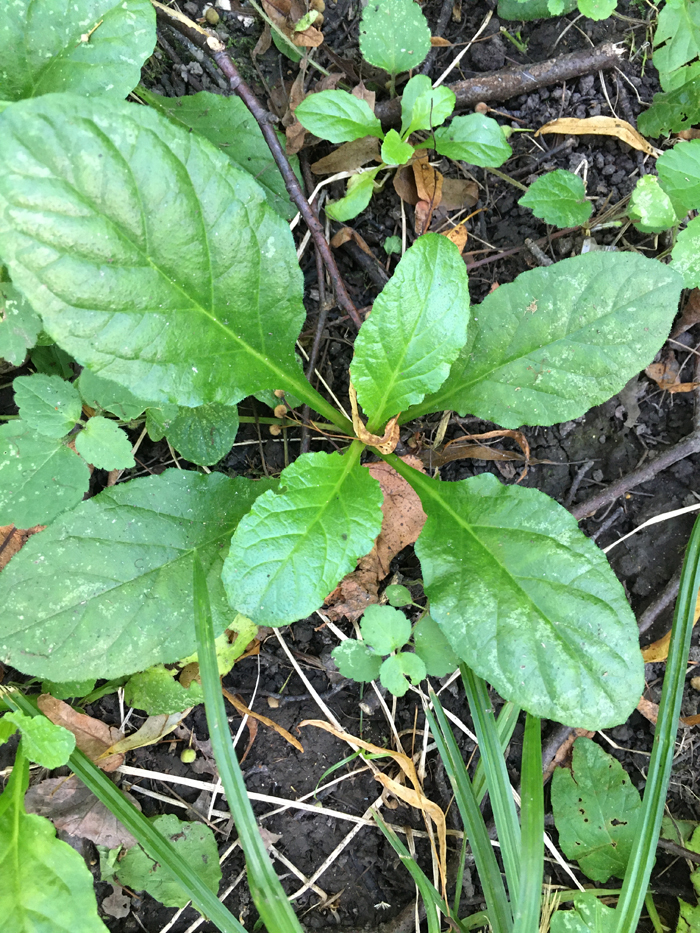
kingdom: Plantae
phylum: Tracheophyta
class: Magnoliopsida
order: Lamiales
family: Lamiaceae
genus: Ajuga
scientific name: Ajuga reptans
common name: Bugle
